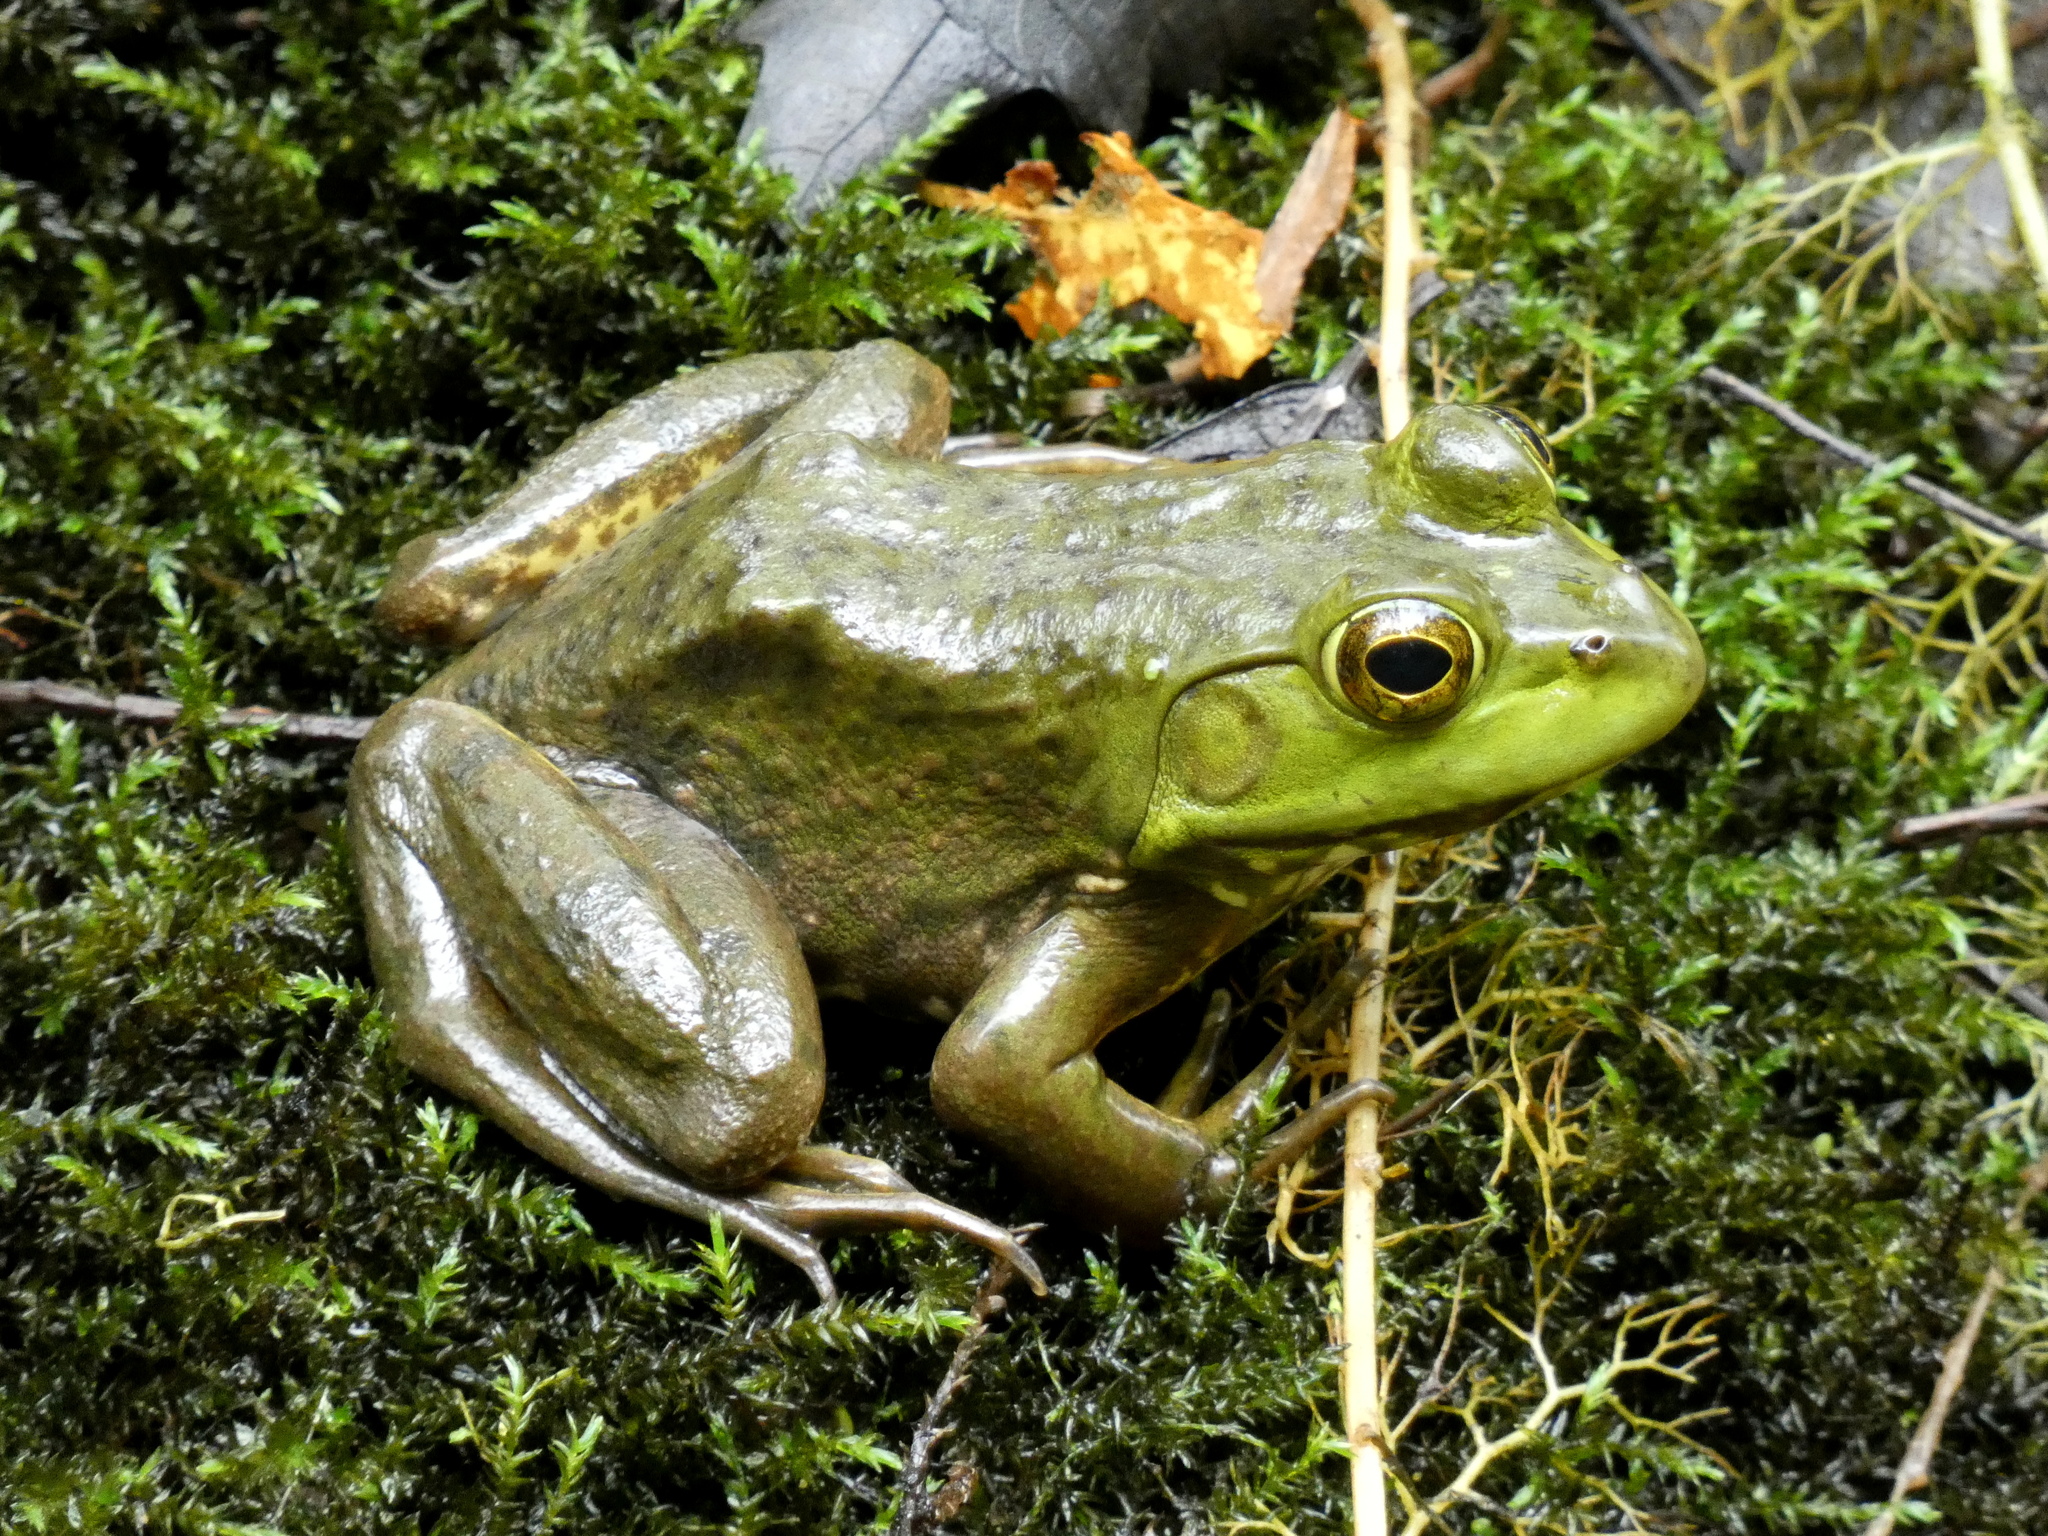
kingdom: Animalia
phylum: Chordata
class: Amphibia
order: Anura
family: Ranidae
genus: Lithobates
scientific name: Lithobates catesbeianus
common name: American bullfrog
